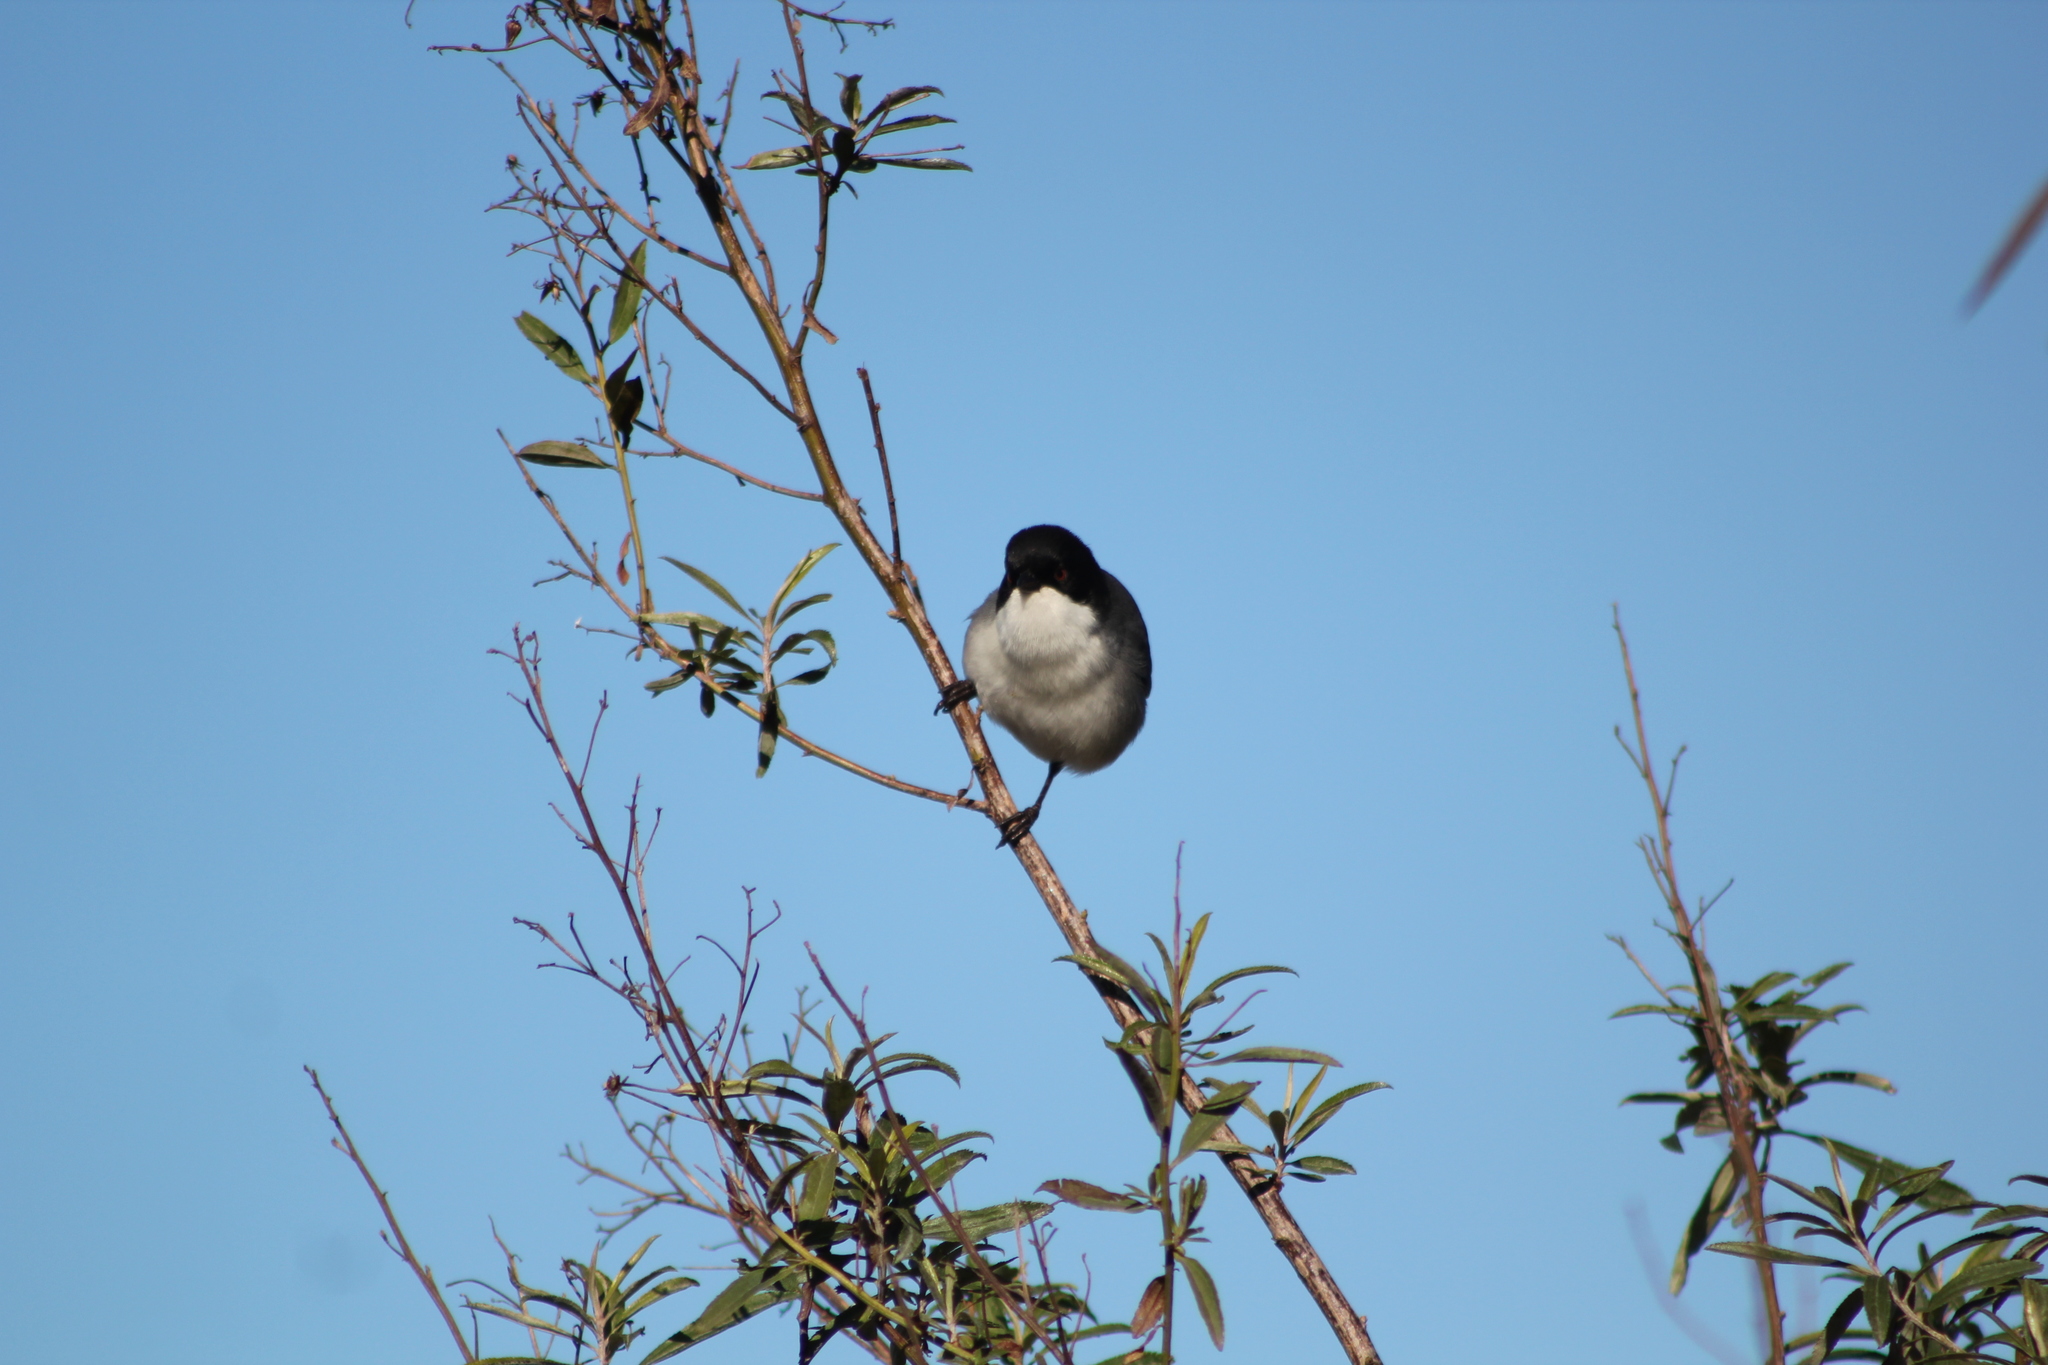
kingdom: Animalia
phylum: Chordata
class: Aves
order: Passeriformes
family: Thraupidae
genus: Microspingus
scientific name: Microspingus melanoleucus
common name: Black-capped warbling-finch
